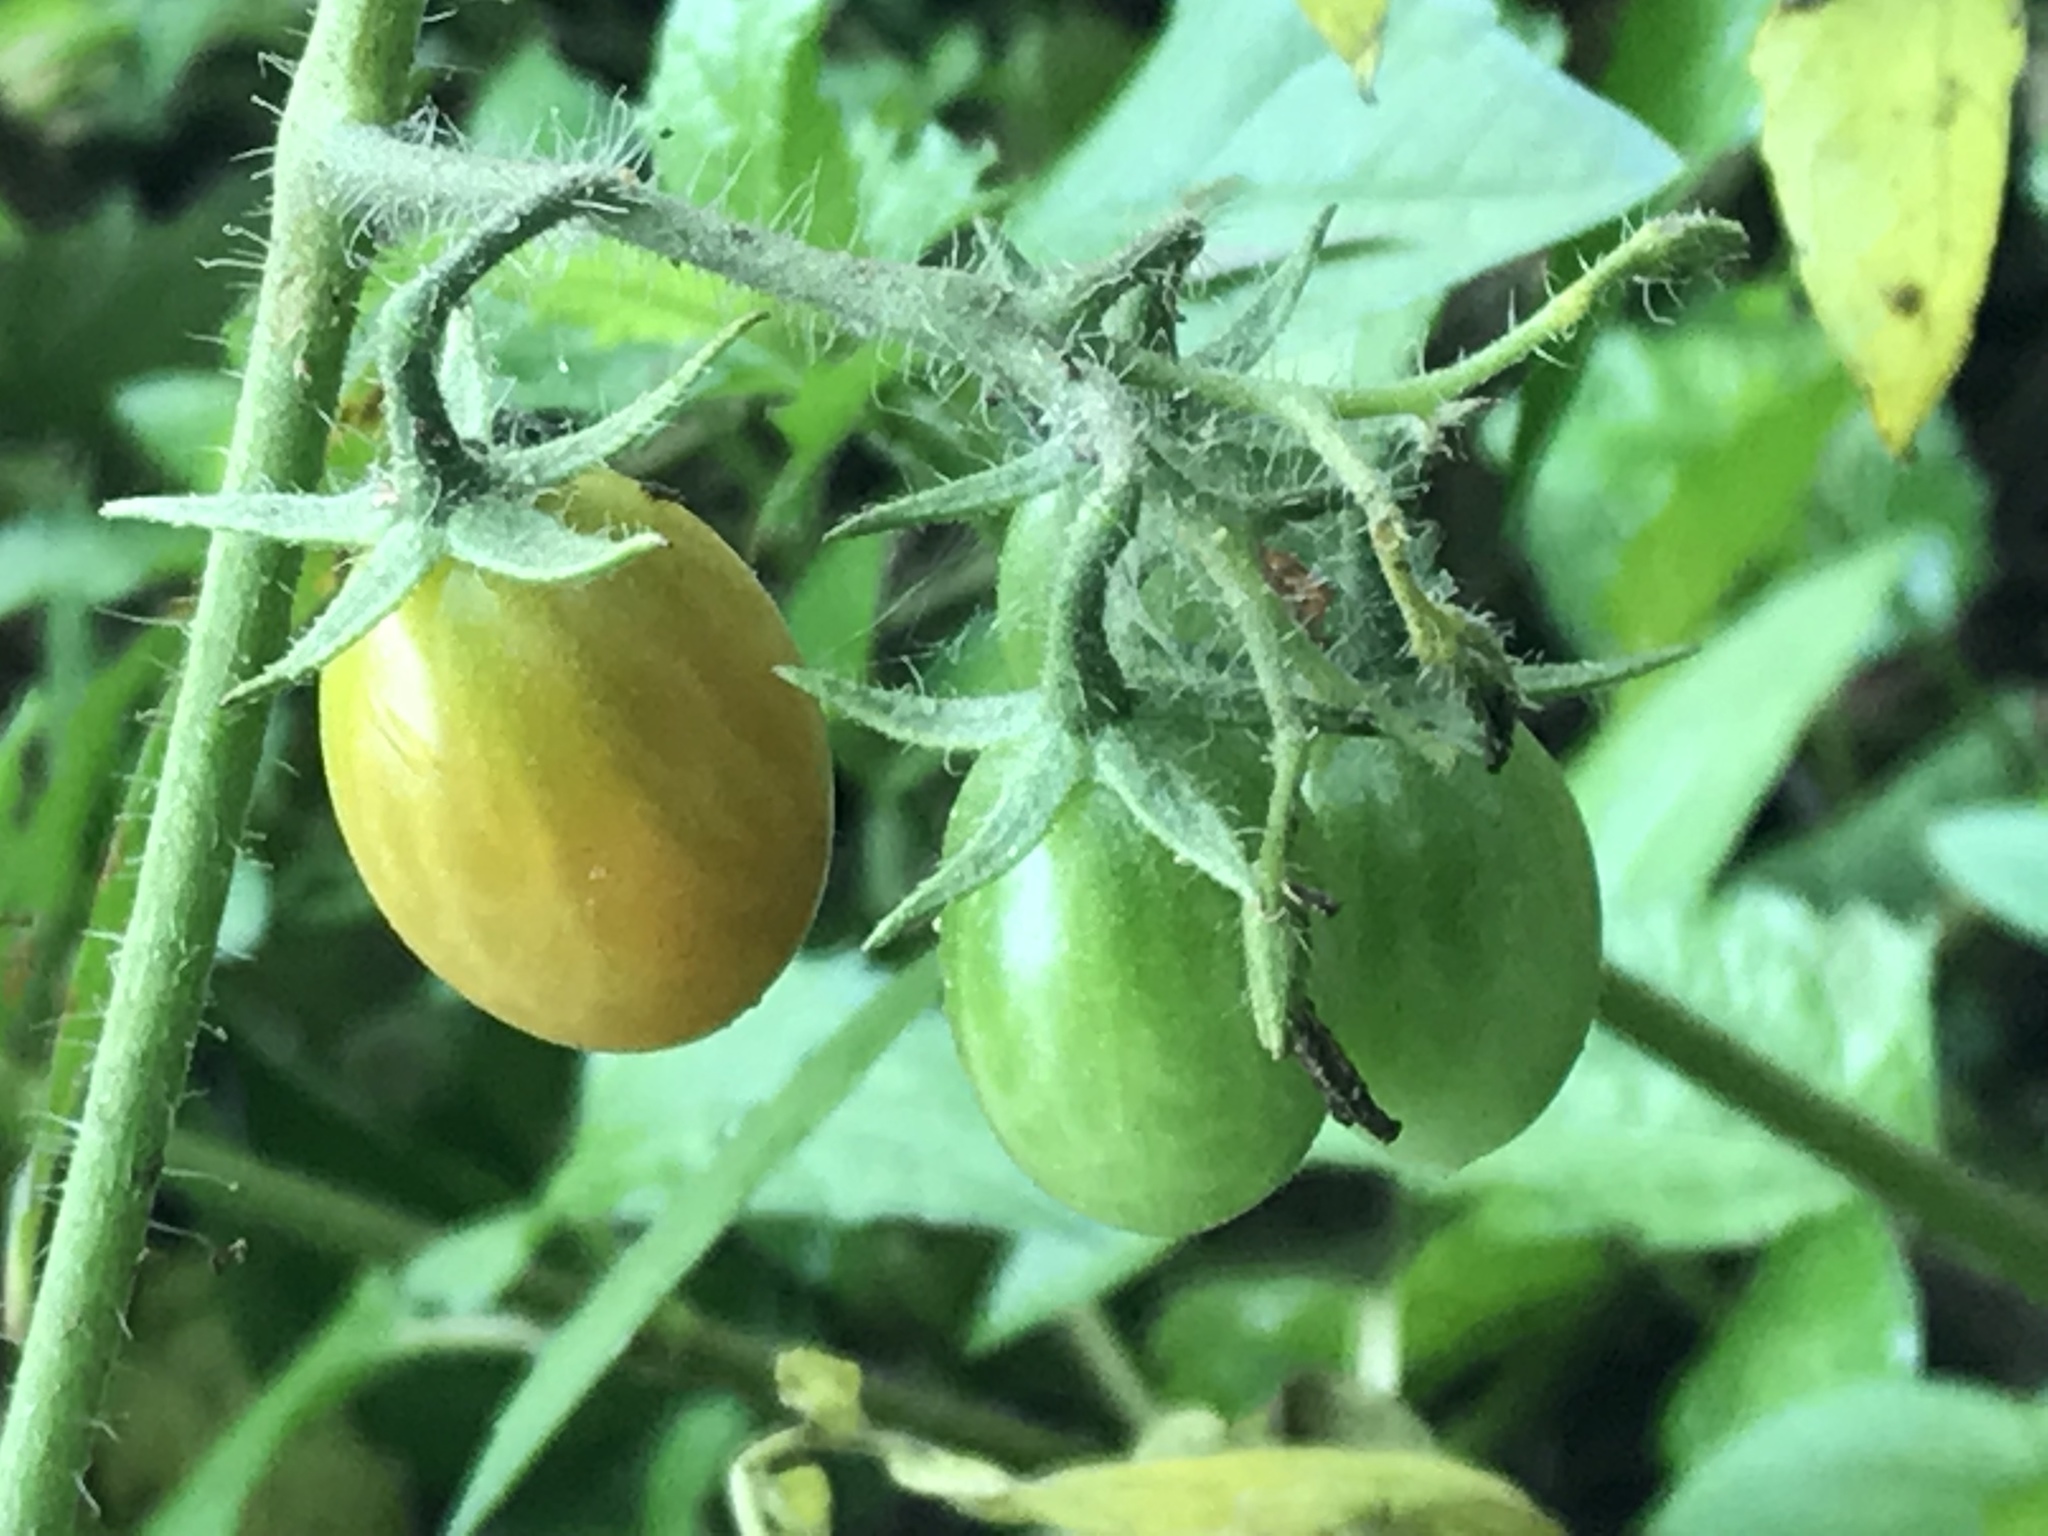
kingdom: Plantae
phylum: Tracheophyta
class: Magnoliopsida
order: Solanales
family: Solanaceae
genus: Solanum
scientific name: Solanum lycopersicum
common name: Garden tomato
